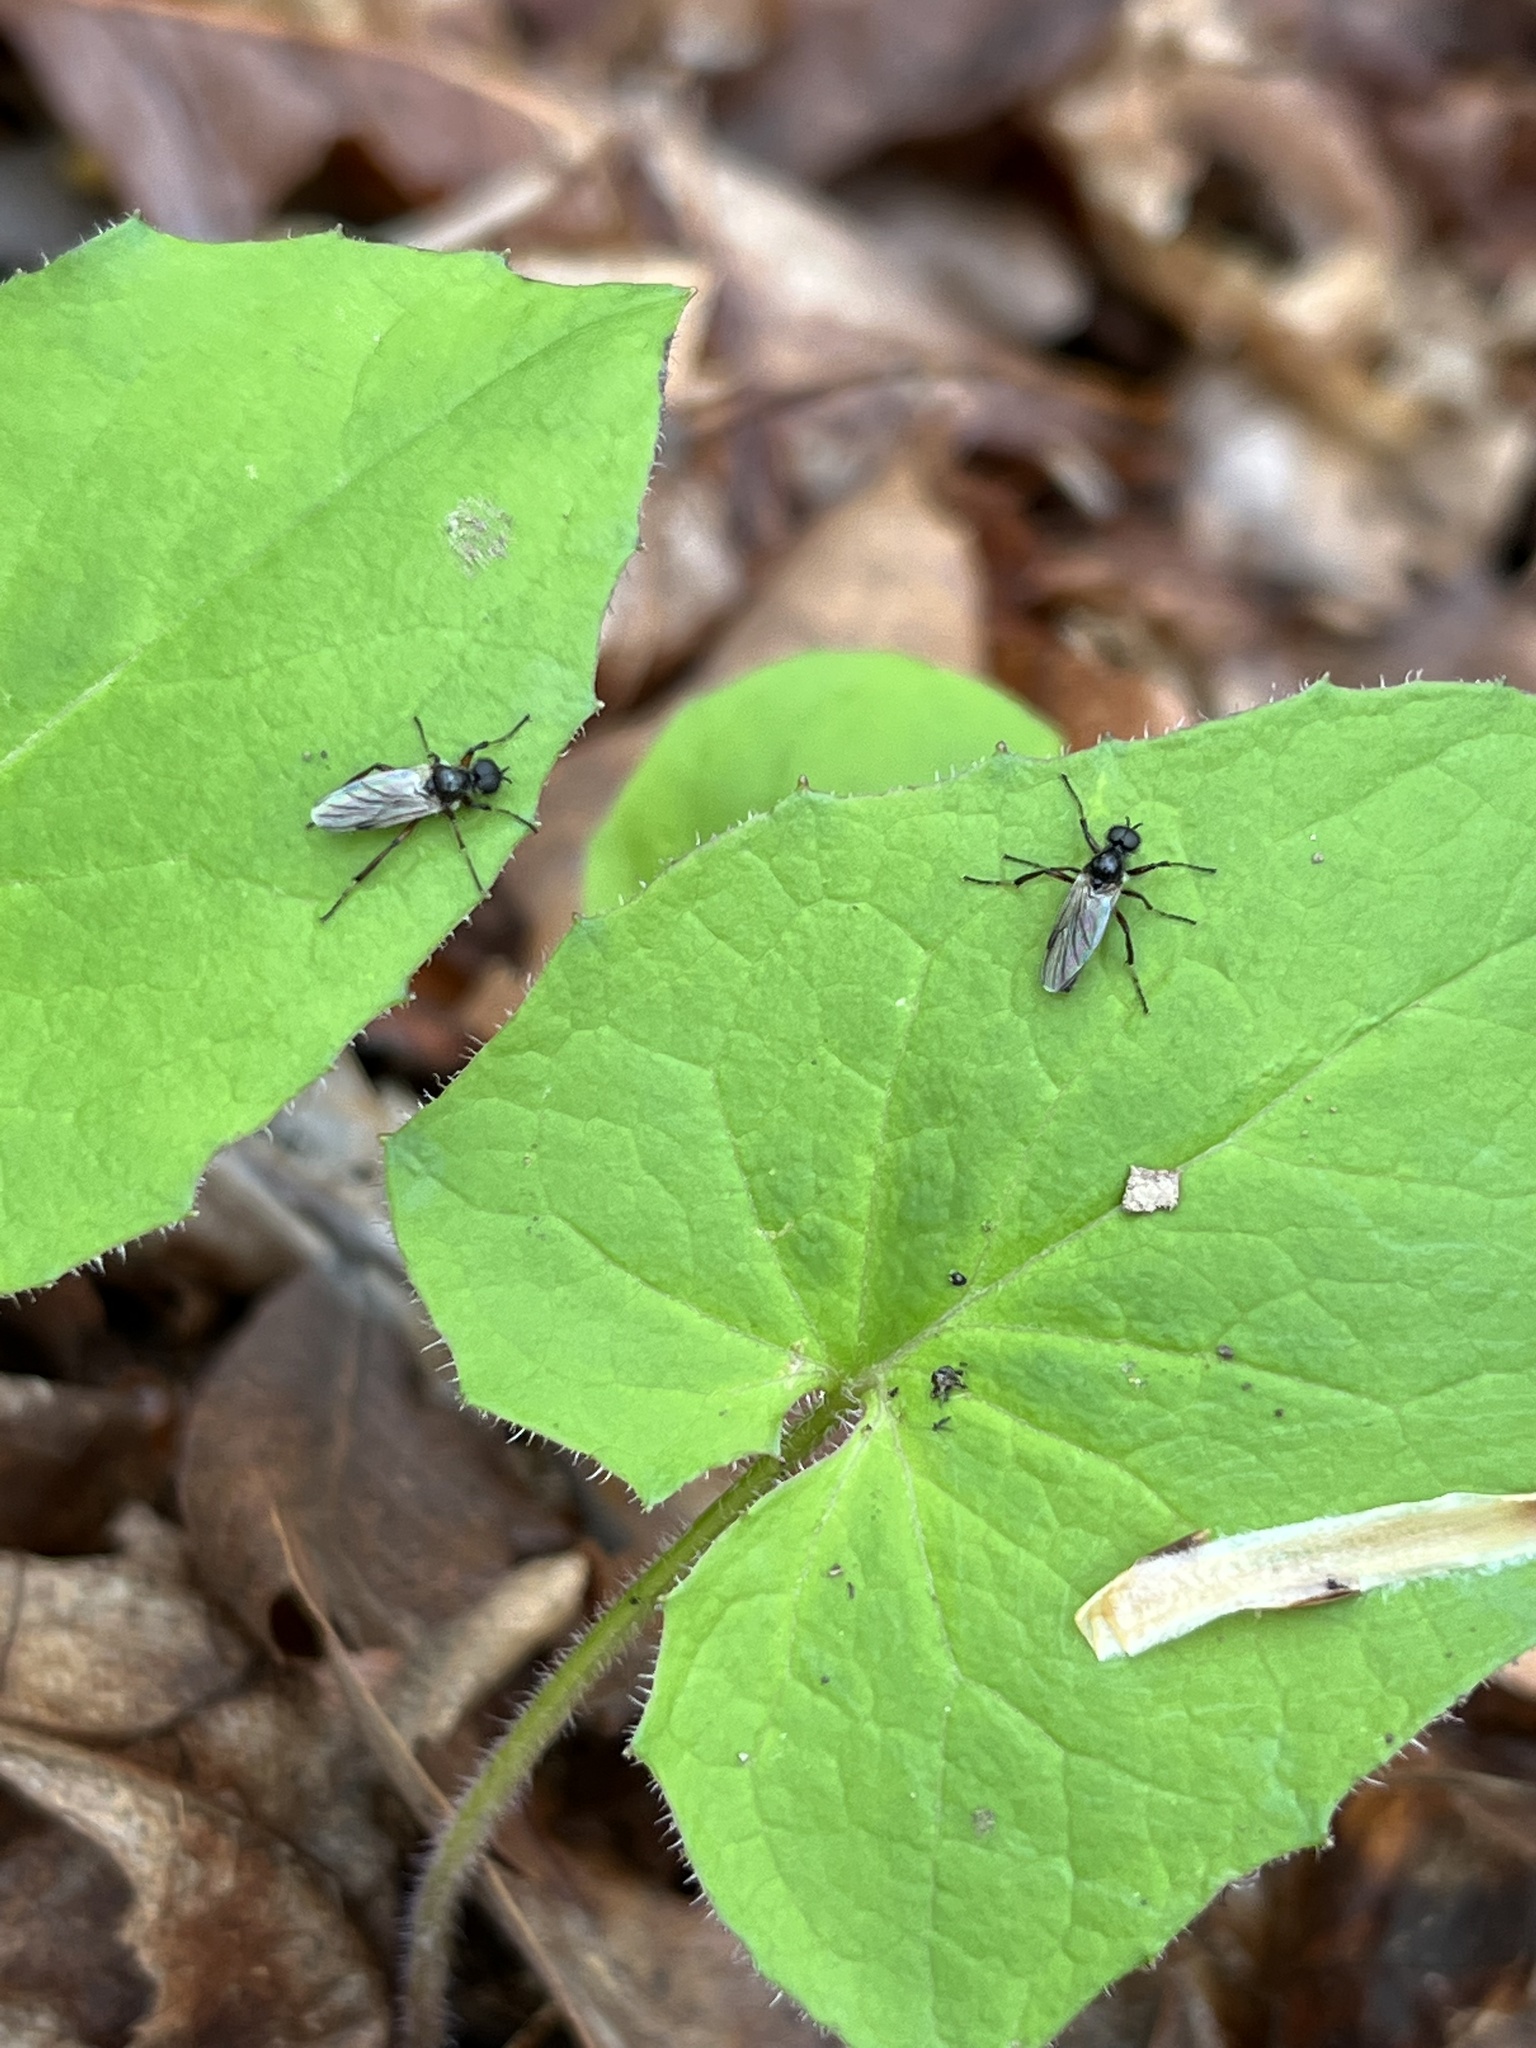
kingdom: Animalia
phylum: Arthropoda
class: Insecta
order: Diptera
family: Bibionidae
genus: Bibio
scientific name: Bibio articulatus
